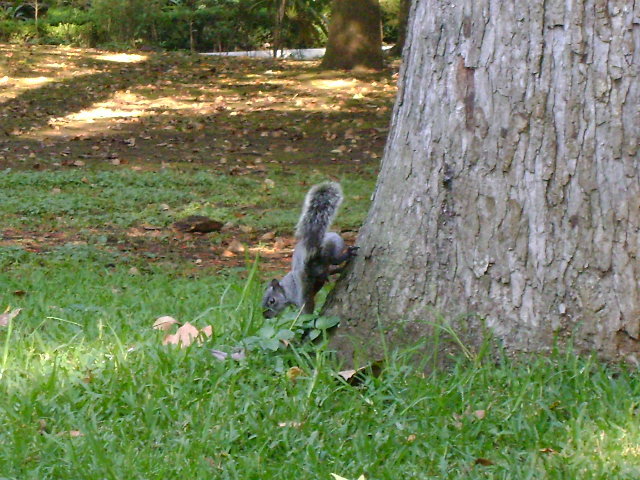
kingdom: Animalia
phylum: Chordata
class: Mammalia
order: Rodentia
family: Sciuridae
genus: Sciurus
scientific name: Sciurus aureogaster
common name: Red-bellied squirrel
